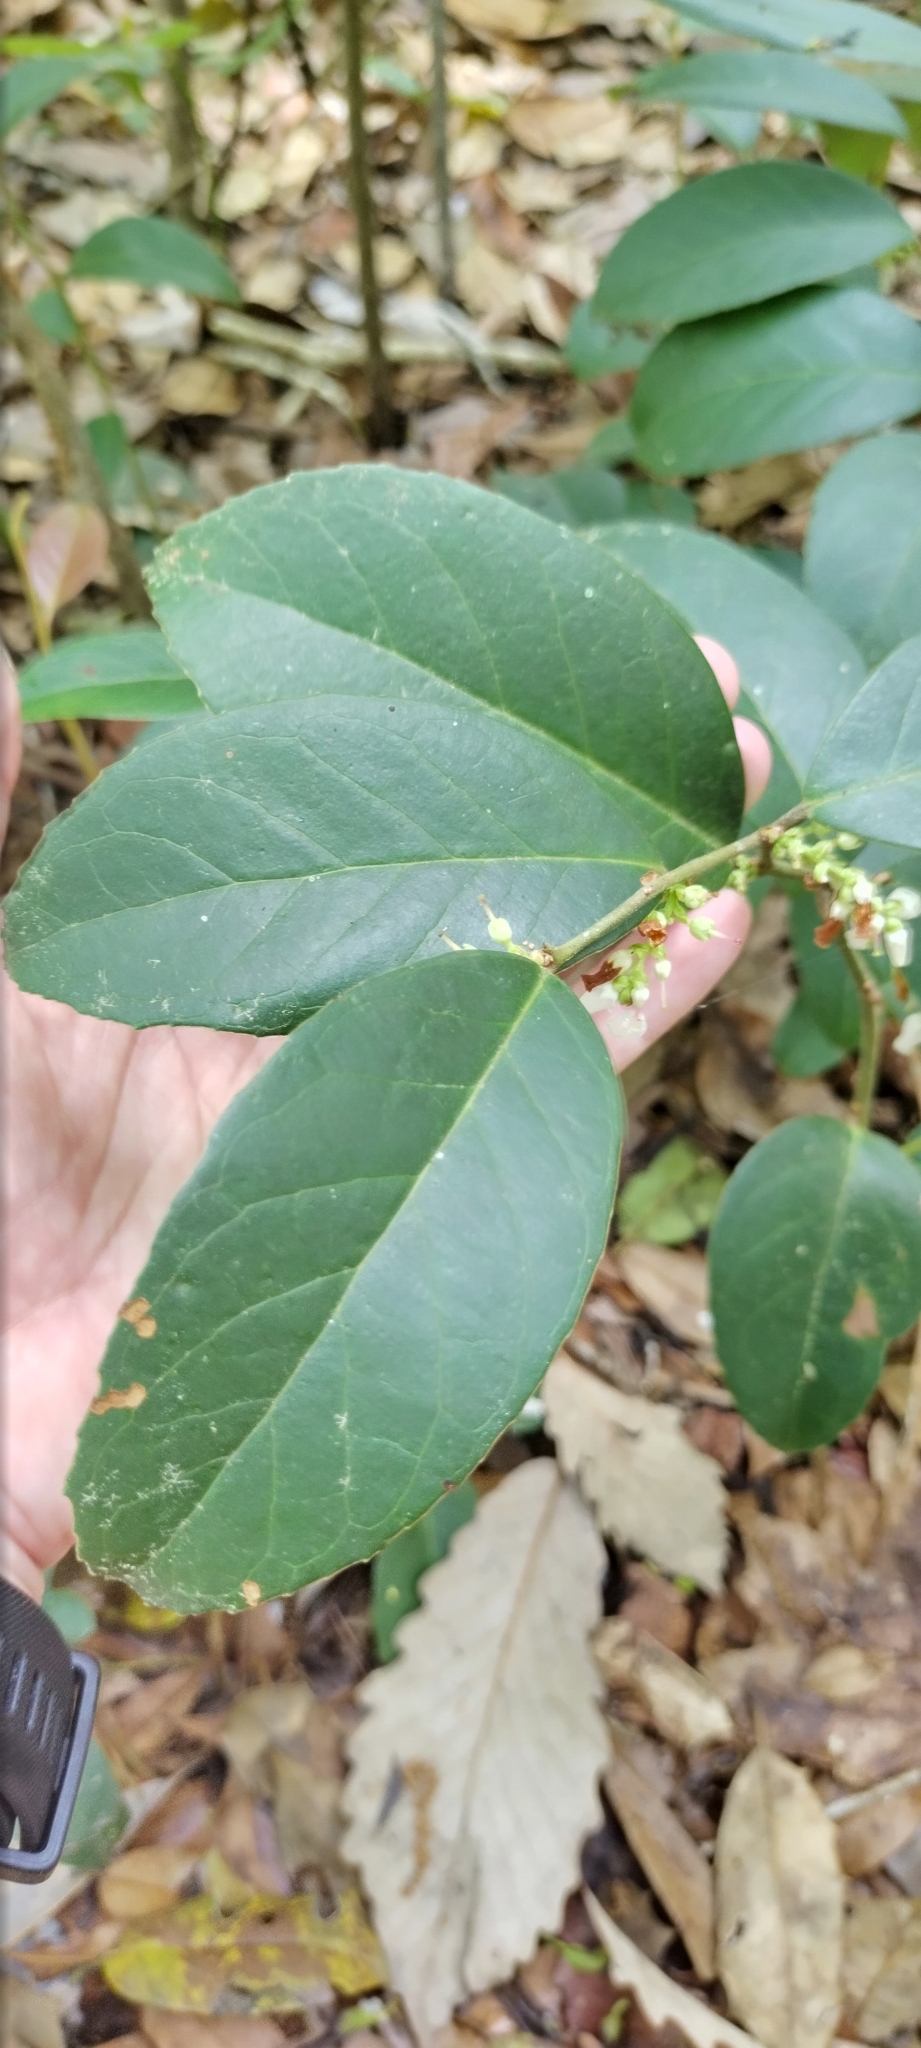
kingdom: Plantae
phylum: Tracheophyta
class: Magnoliopsida
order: Ericales
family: Ericaceae
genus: Leucothoe
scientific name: Leucothoe axillaris
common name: Leucothoe
